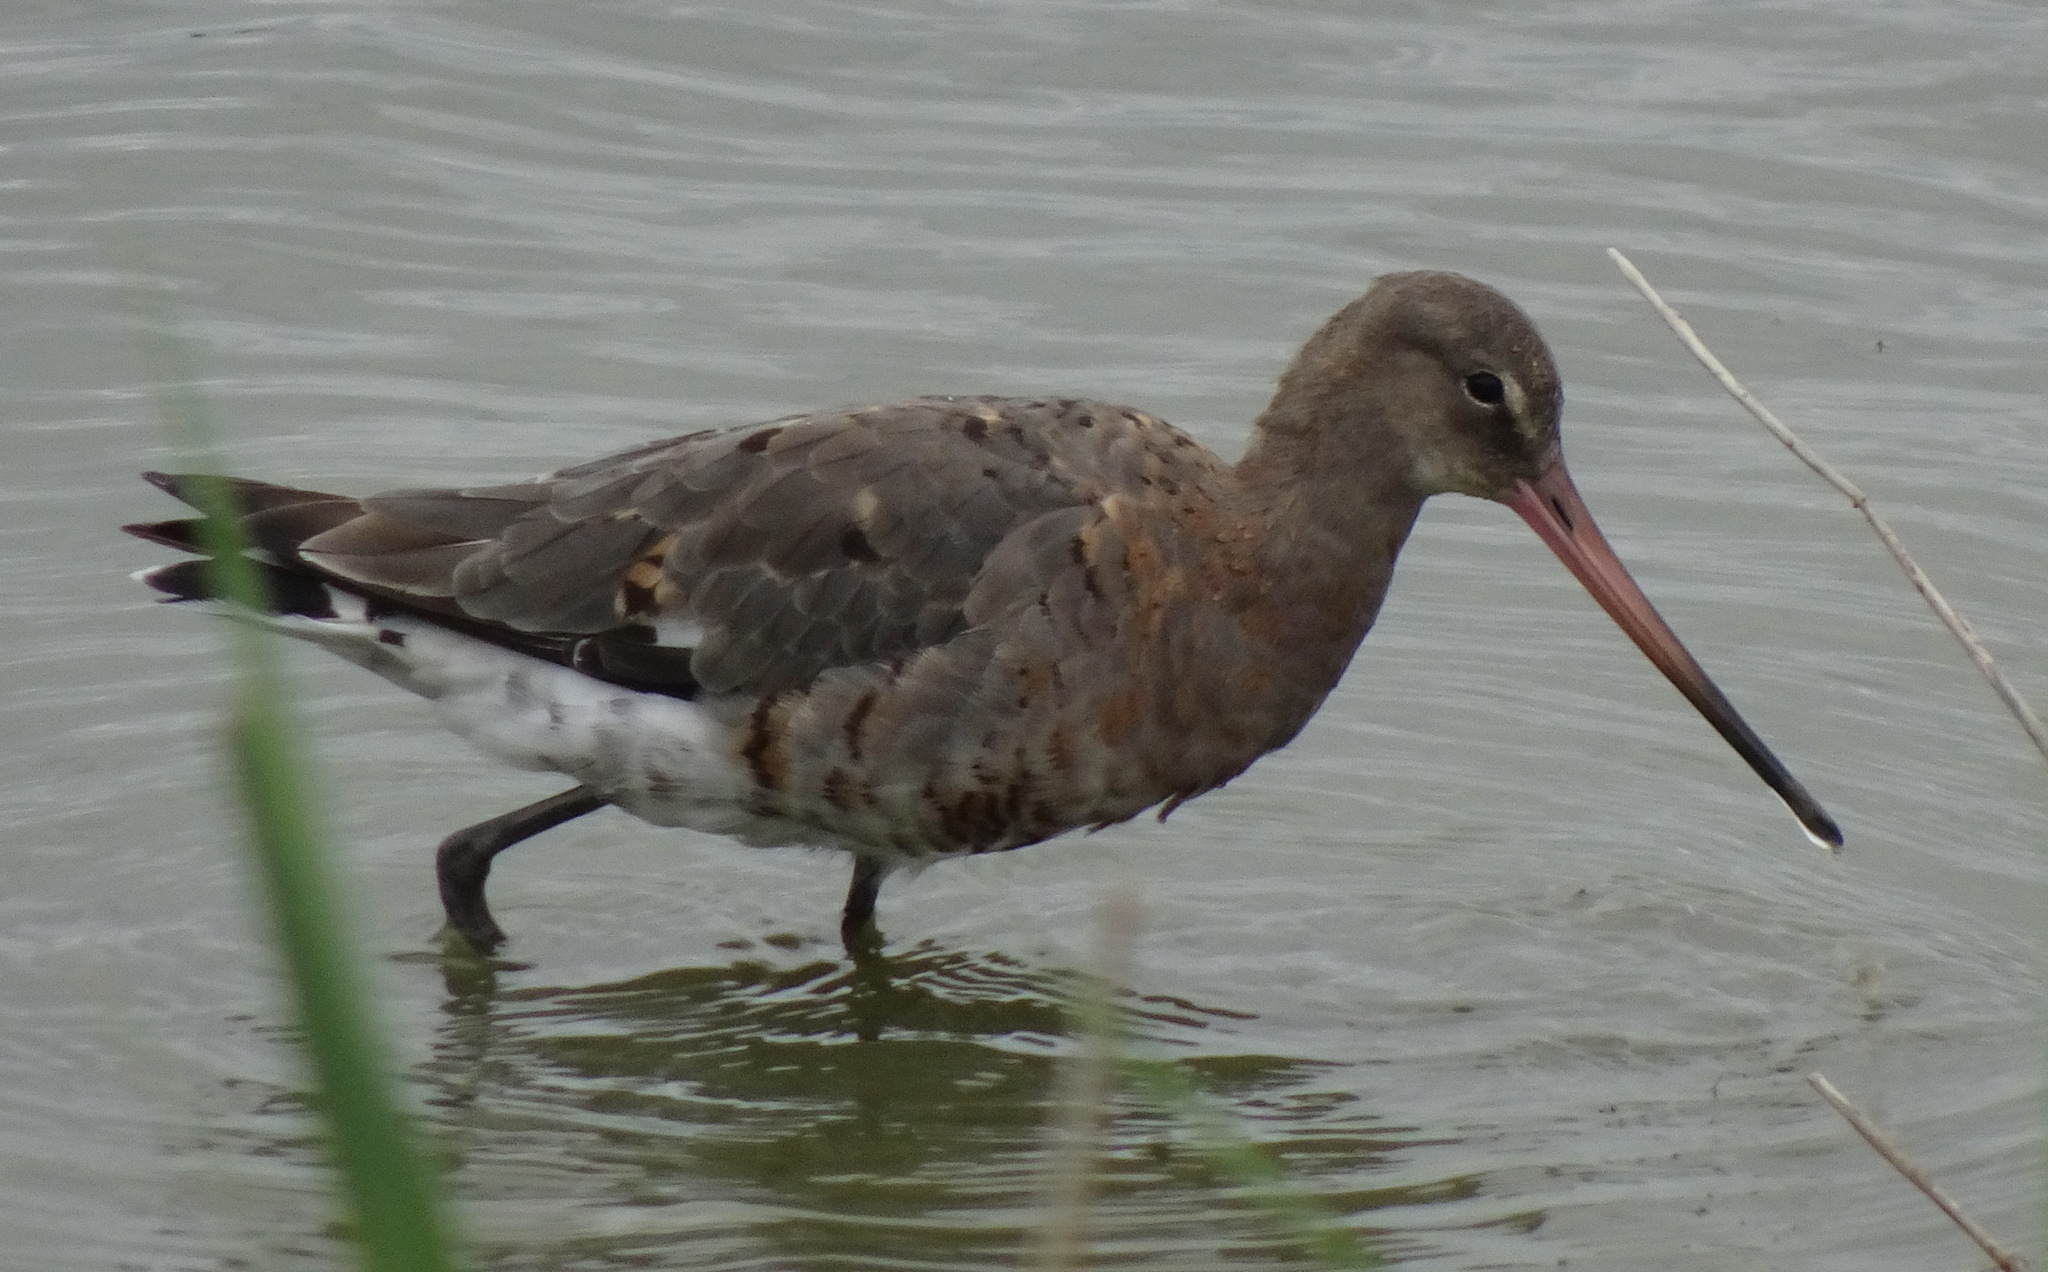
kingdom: Animalia
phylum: Chordata
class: Aves
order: Charadriiformes
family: Scolopacidae
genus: Limosa
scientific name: Limosa limosa
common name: Black-tailed godwit
